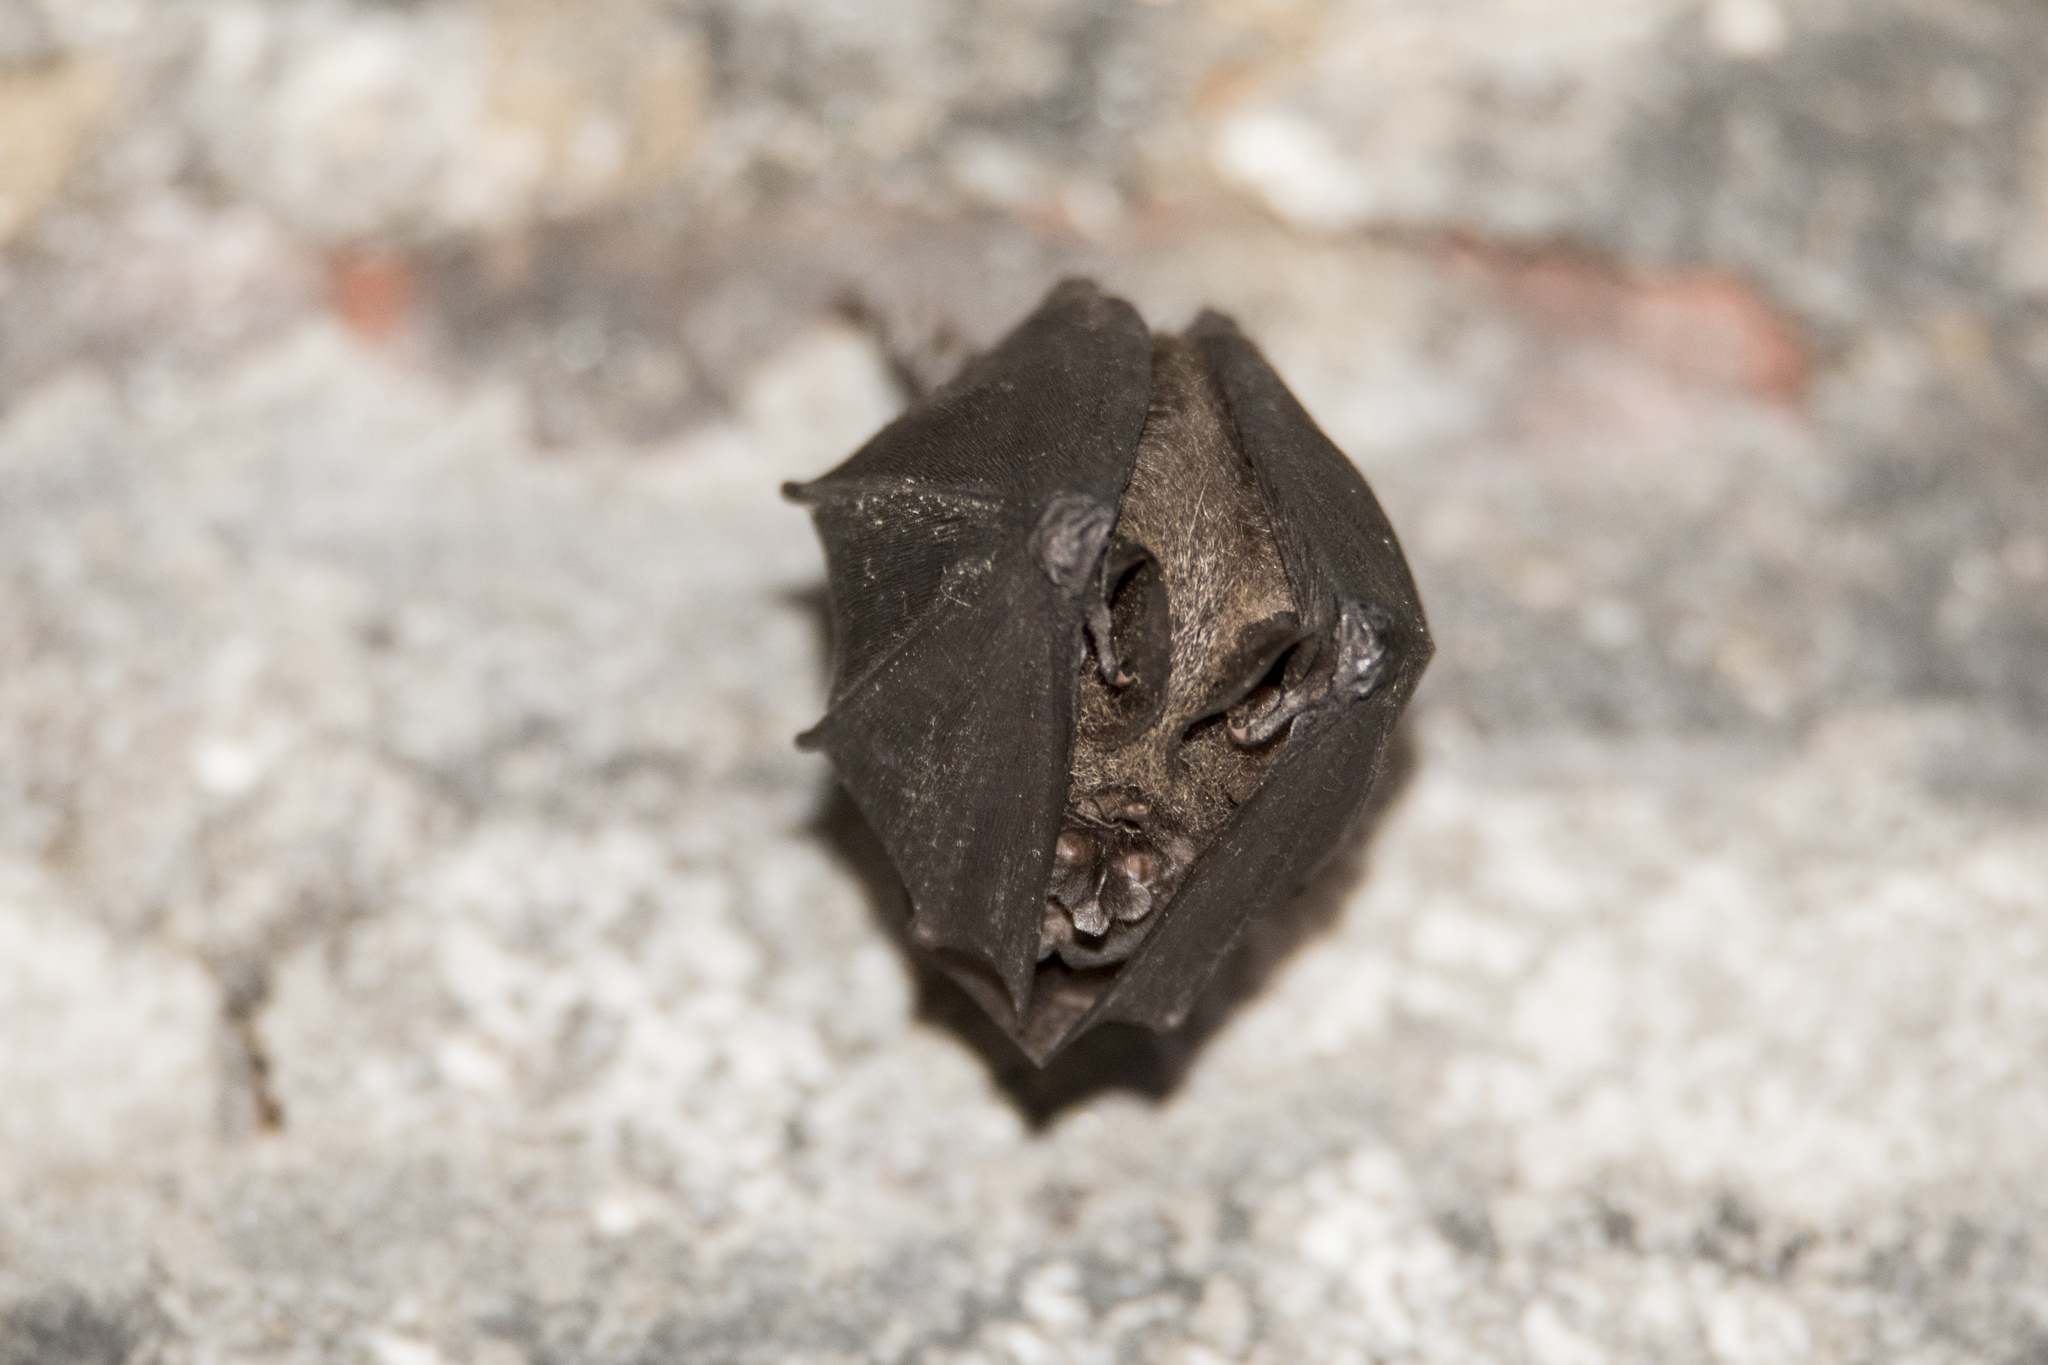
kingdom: Animalia
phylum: Chordata
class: Mammalia
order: Chiroptera
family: Rhinolophidae
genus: Rhinolophus
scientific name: Rhinolophus formosae
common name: Formosan woolly horseshoe bat
